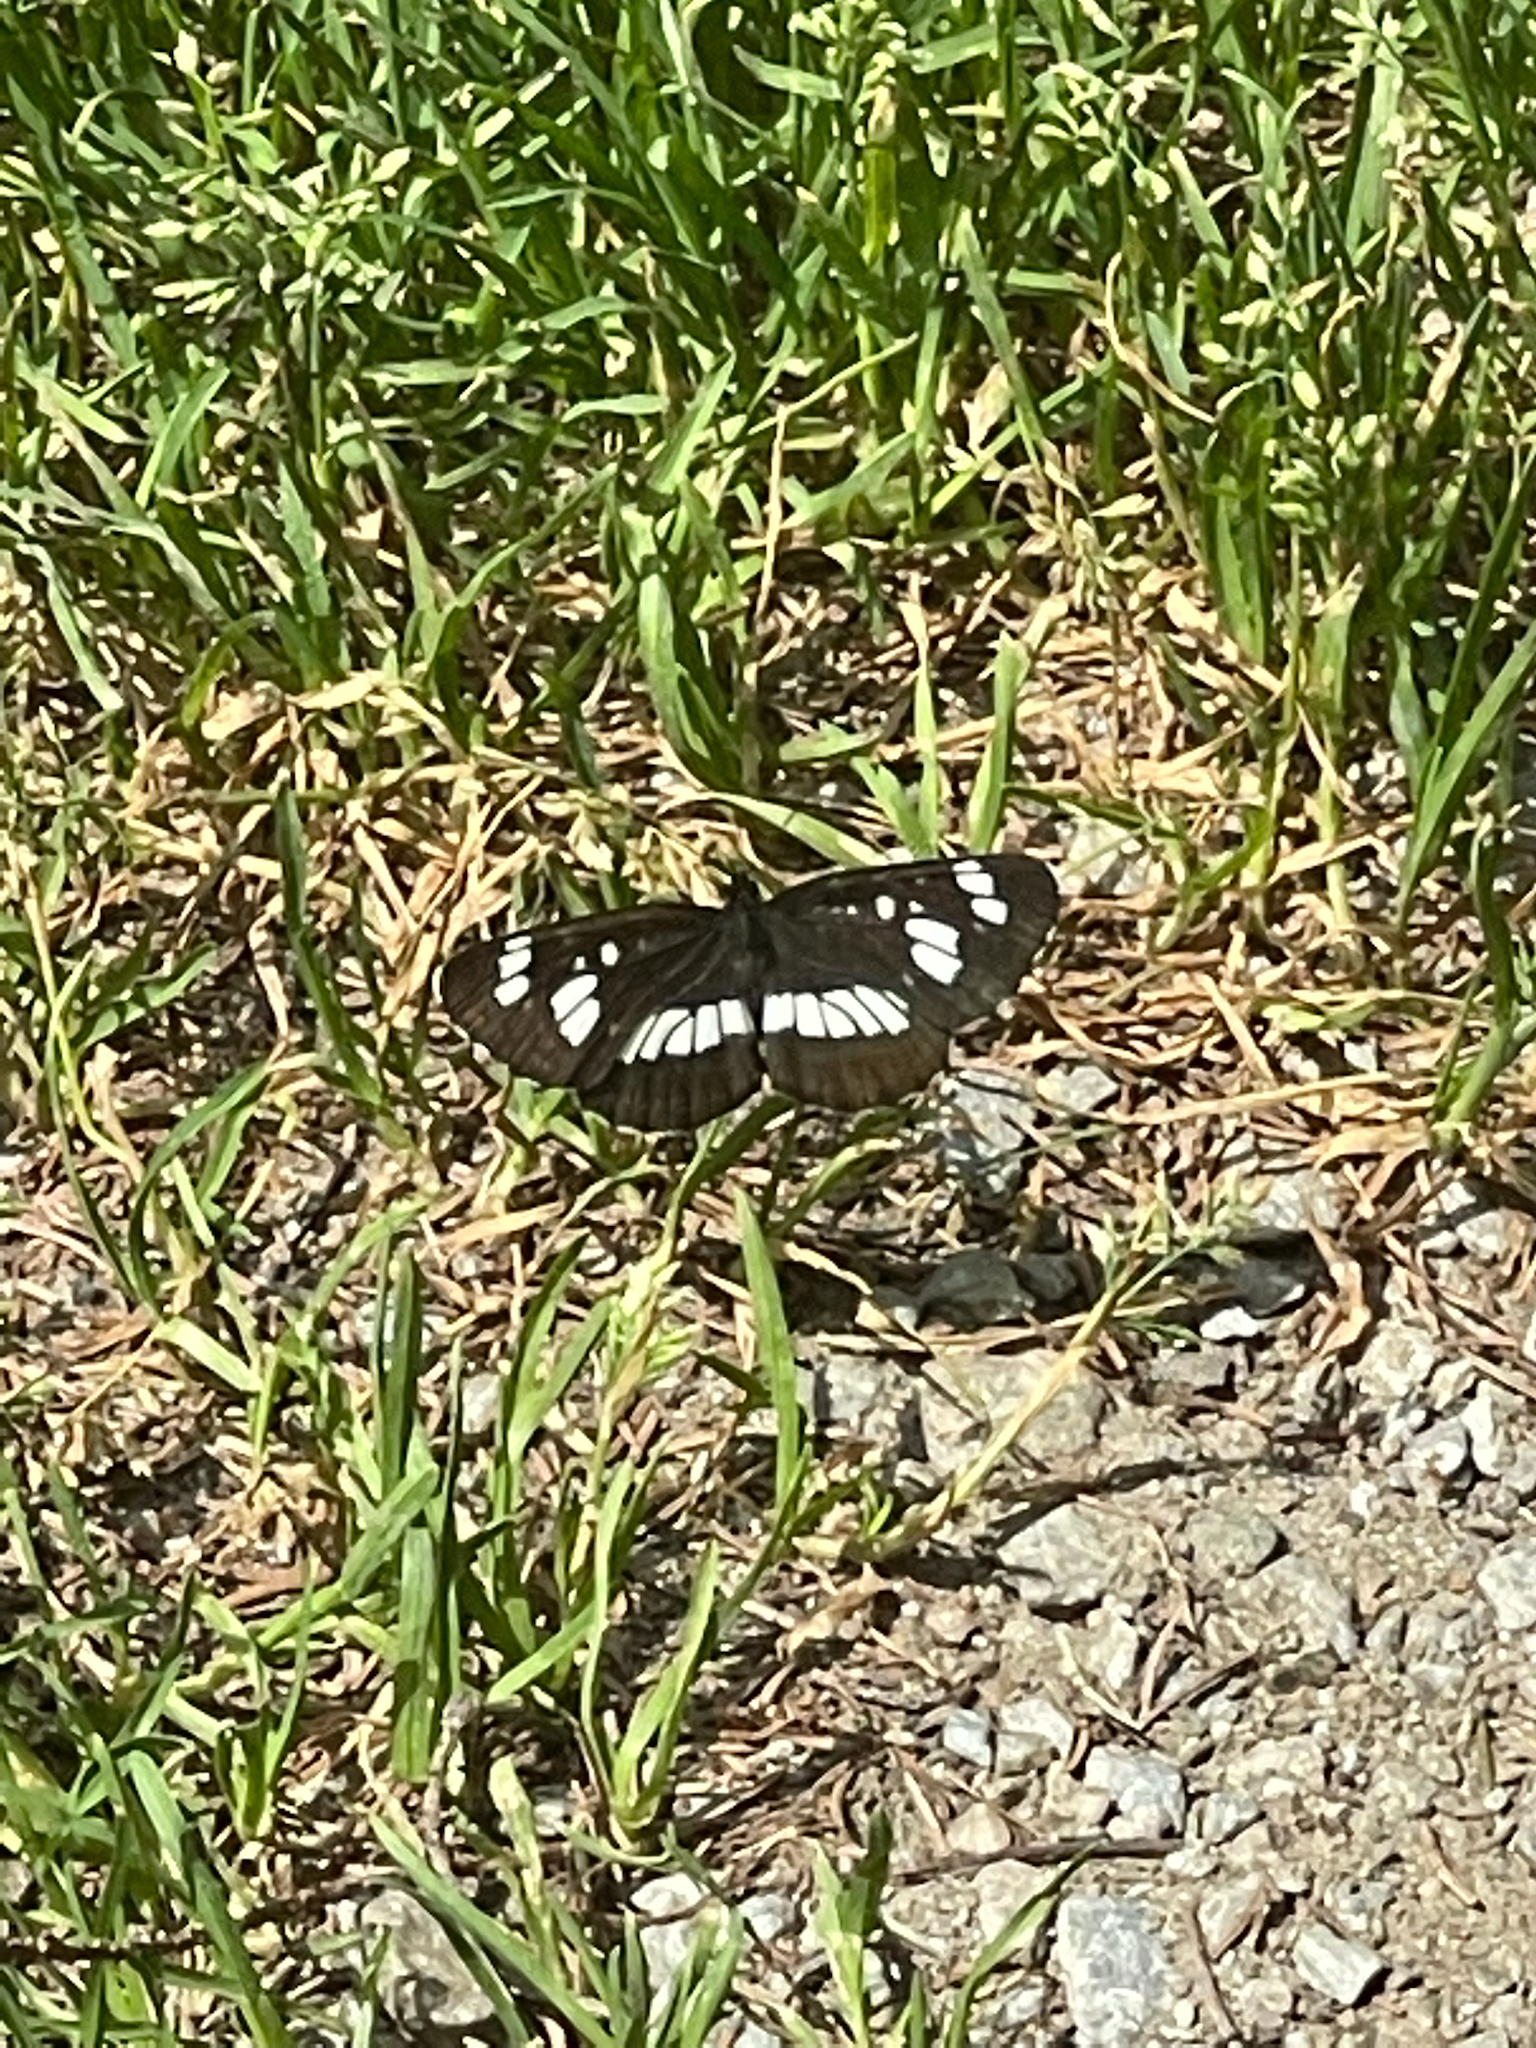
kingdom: Animalia
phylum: Arthropoda
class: Insecta
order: Lepidoptera
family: Nymphalidae
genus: Neptis
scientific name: Neptis rivularis
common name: Hungarian glider
